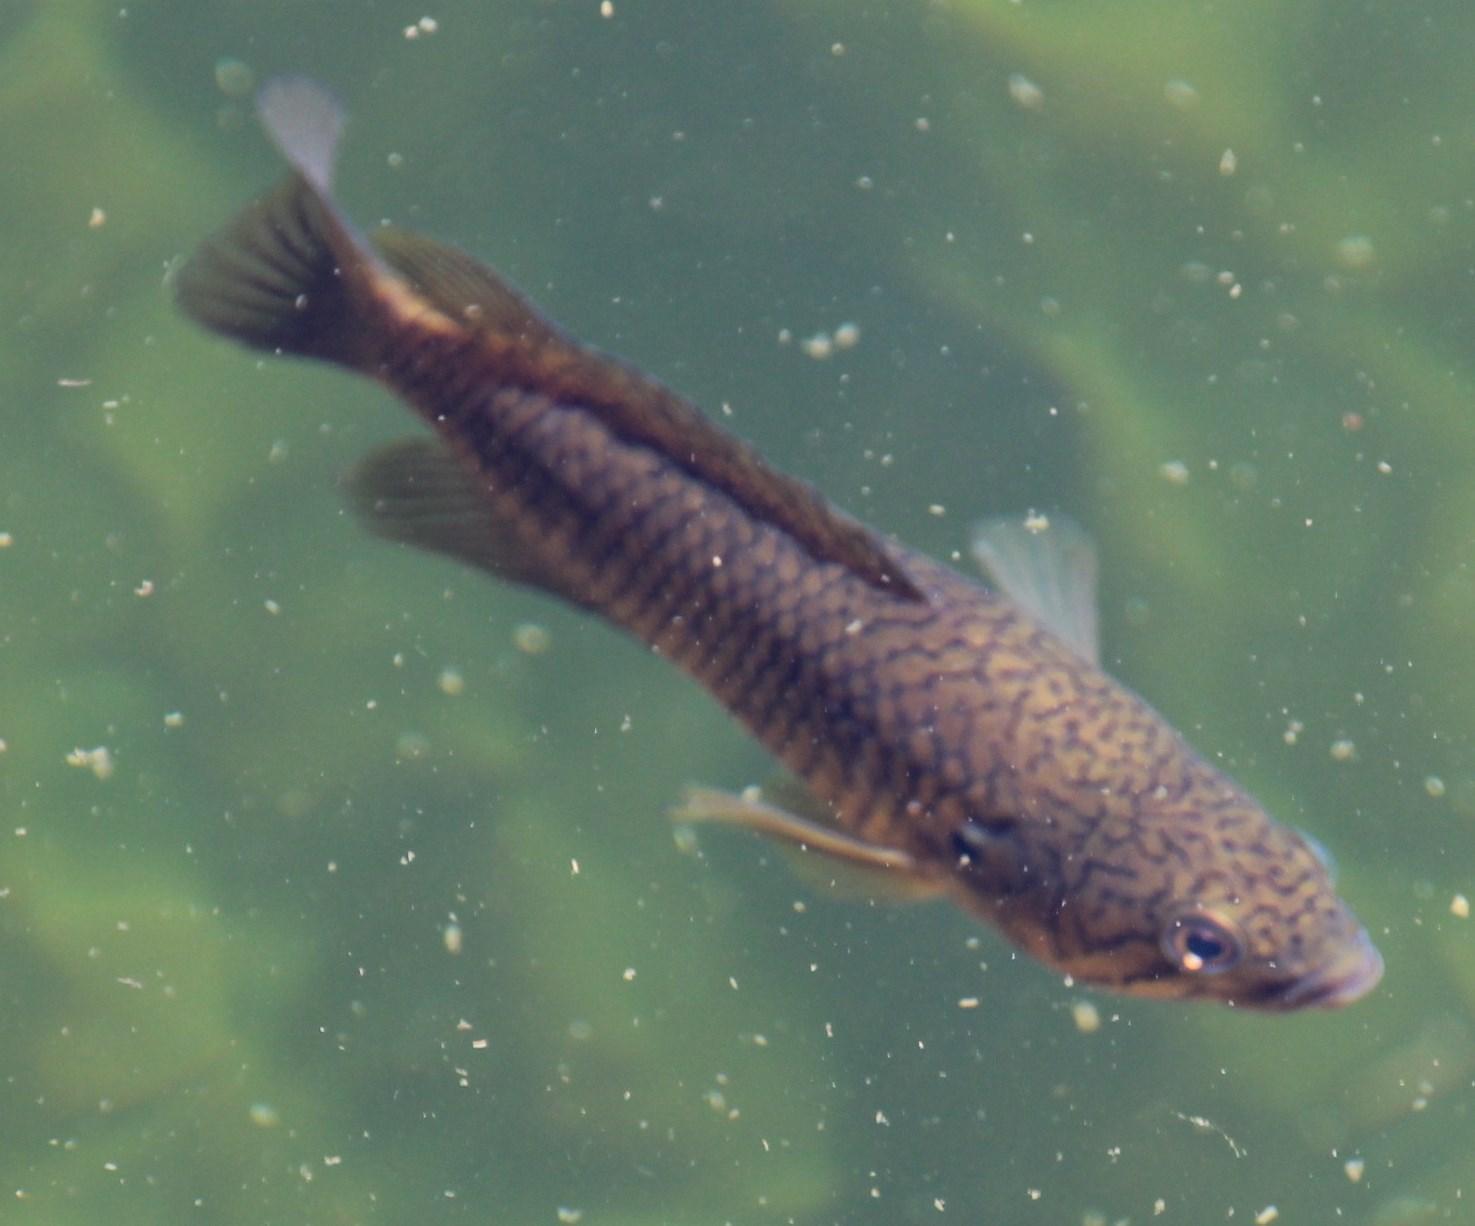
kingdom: Animalia
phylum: Chordata
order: Perciformes
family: Anabantidae
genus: Sandelia
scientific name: Sandelia capensis
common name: Cape kurper
